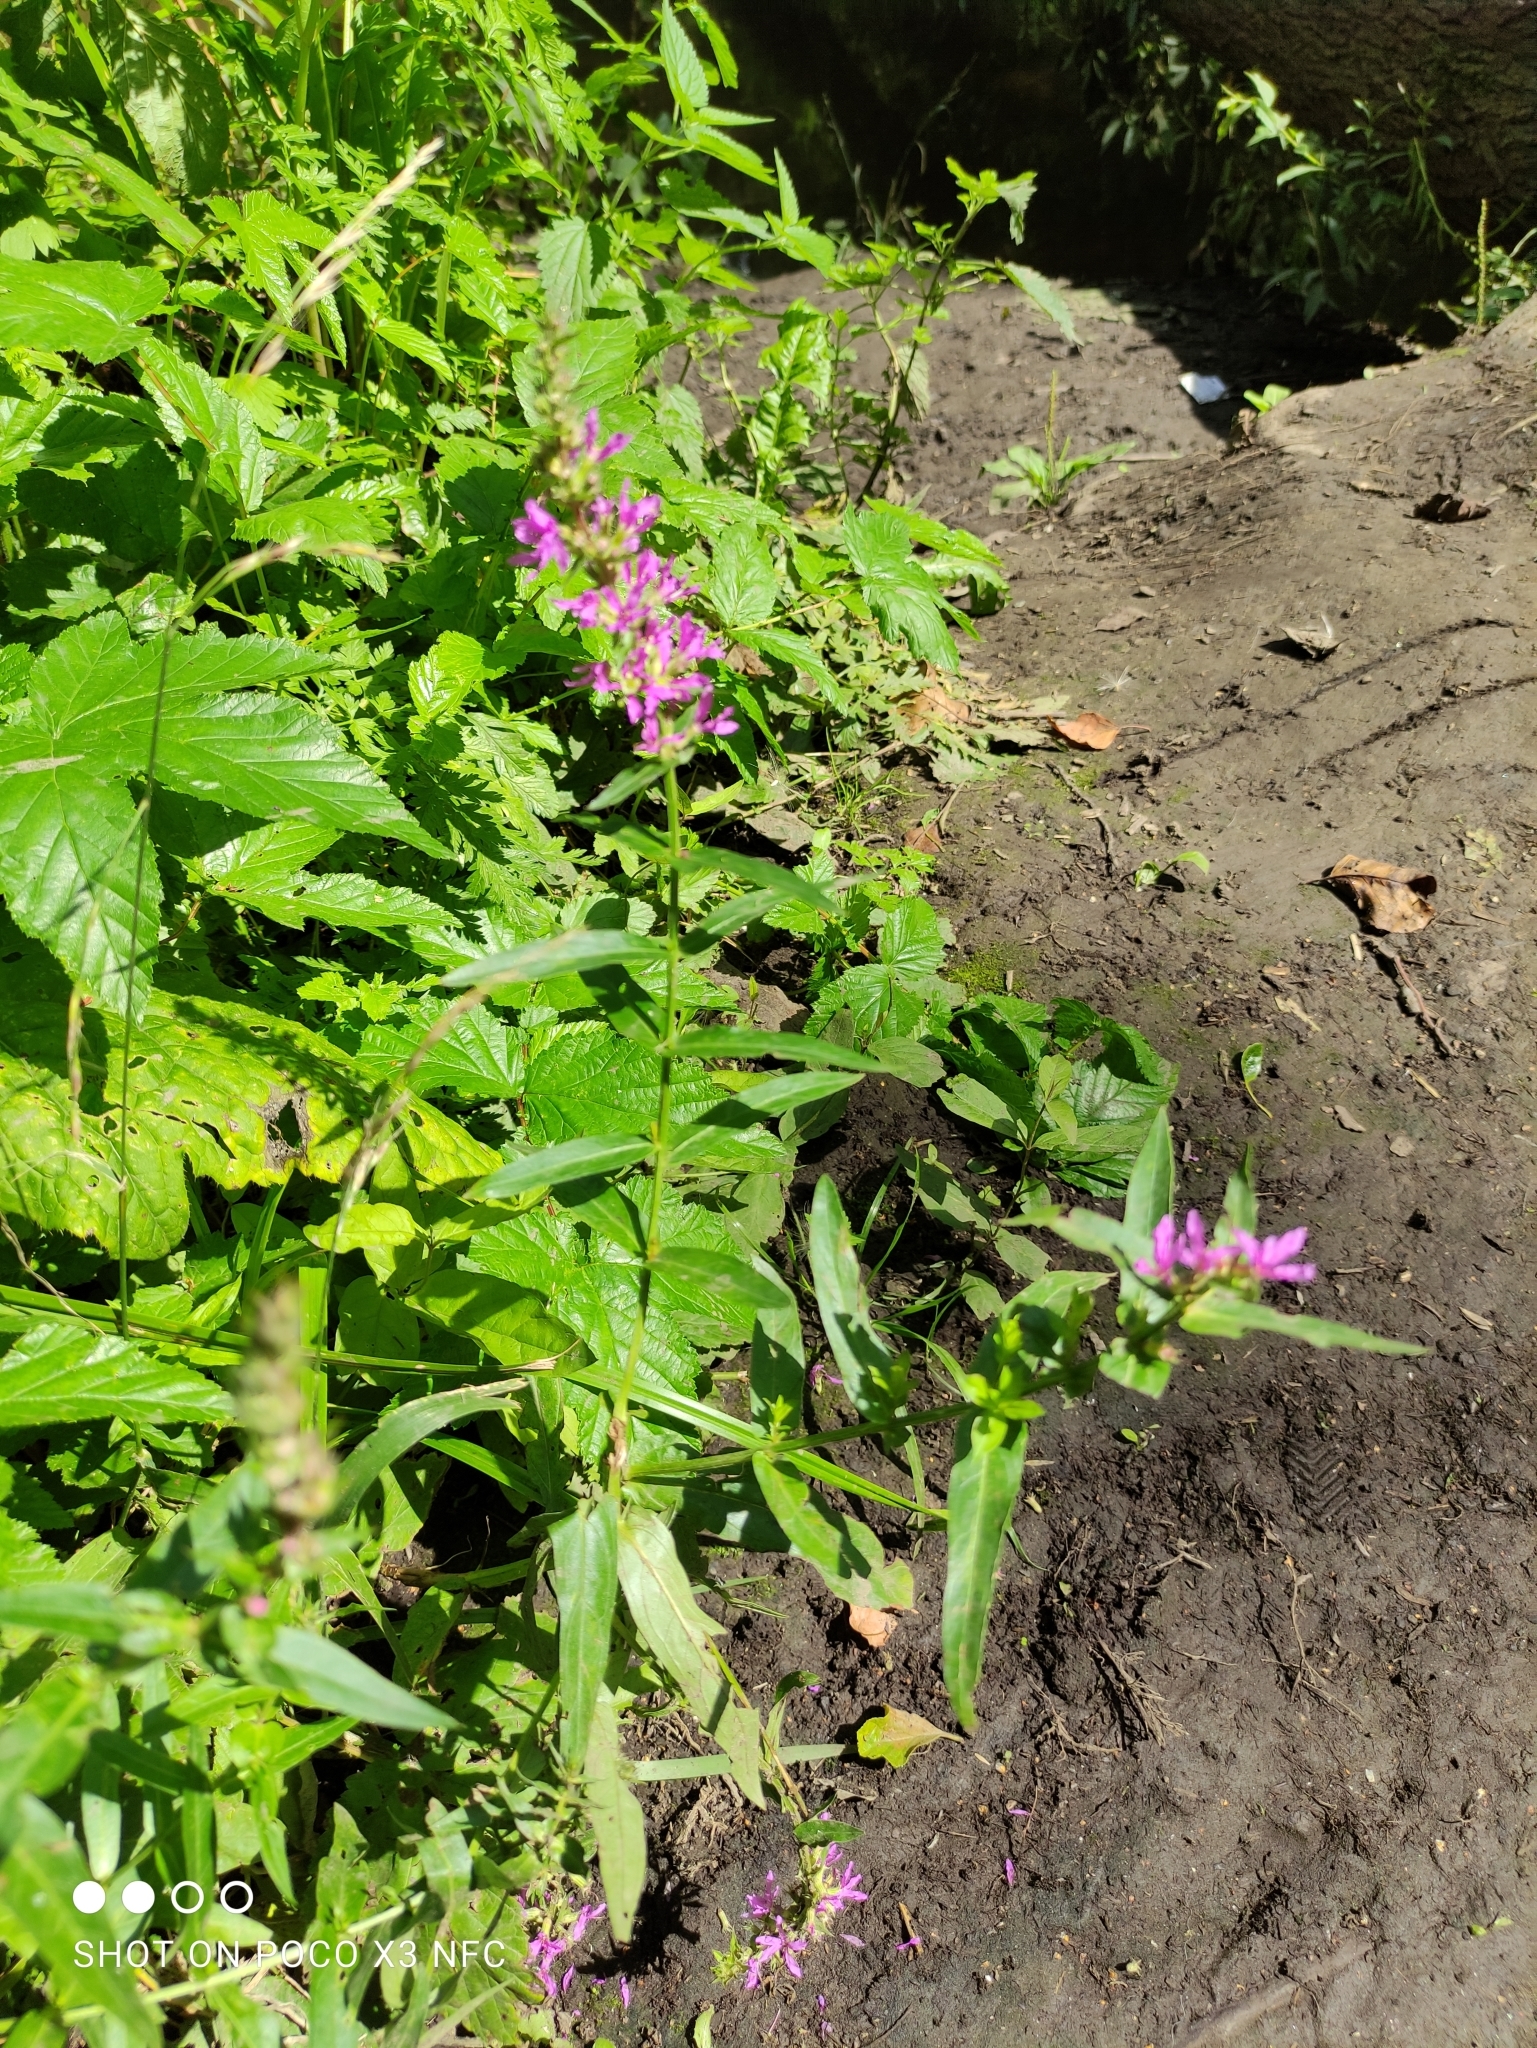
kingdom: Plantae
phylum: Tracheophyta
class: Magnoliopsida
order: Myrtales
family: Lythraceae
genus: Lythrum
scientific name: Lythrum salicaria
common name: Purple loosestrife
